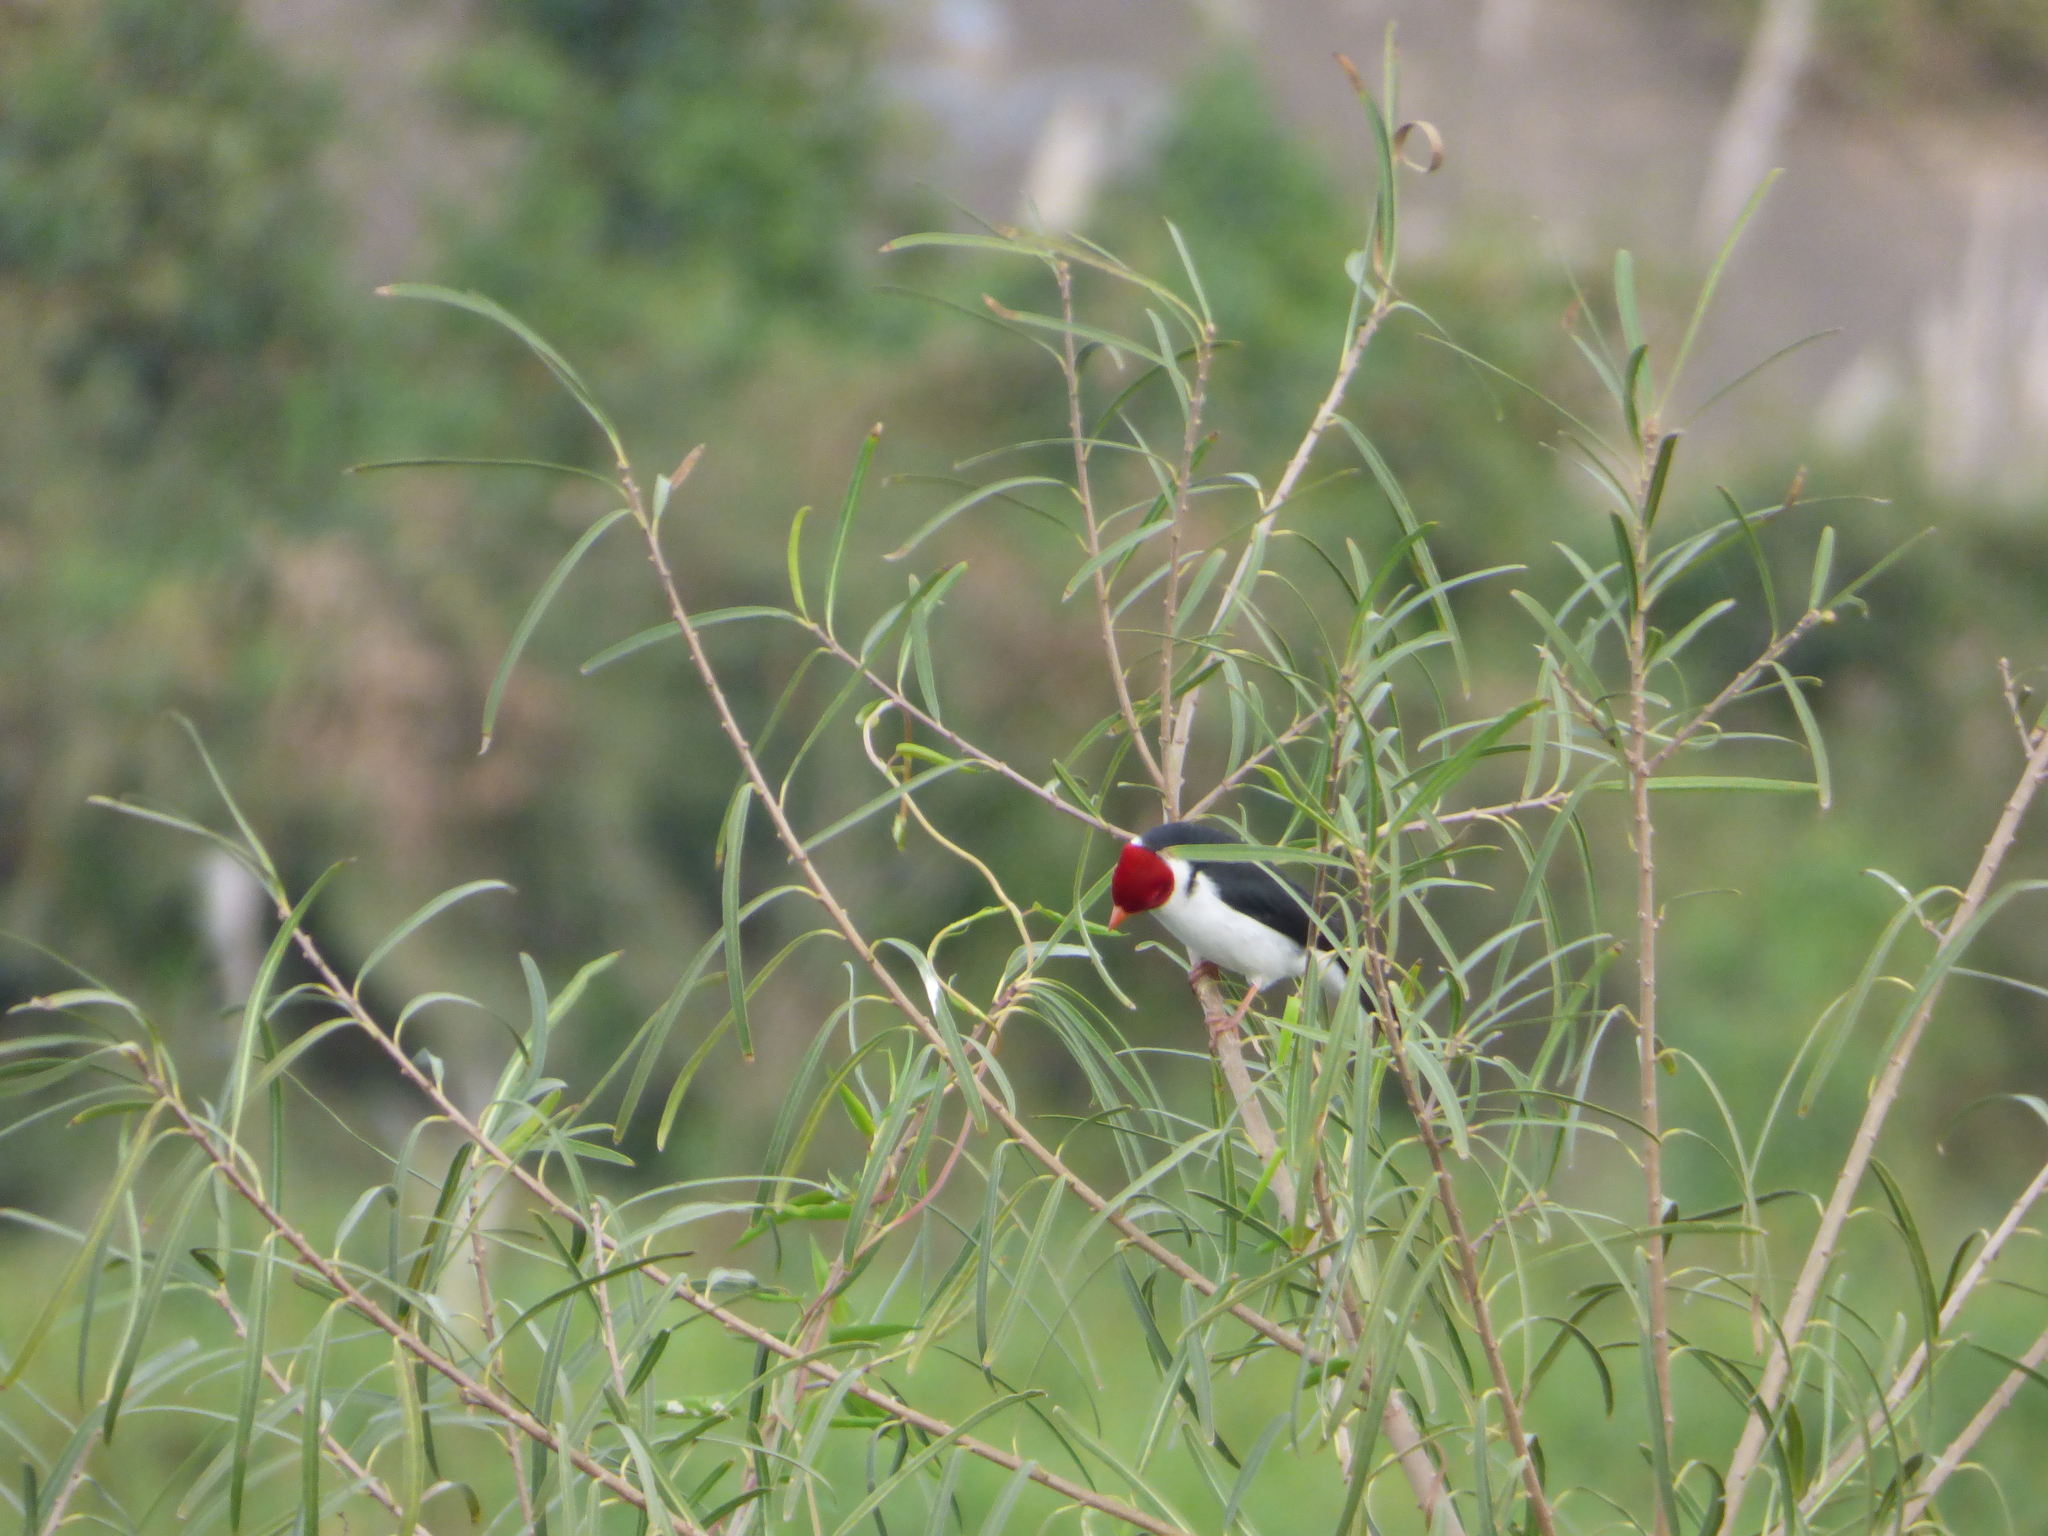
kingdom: Animalia
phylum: Chordata
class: Aves
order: Passeriformes
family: Thraupidae
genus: Paroaria
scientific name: Paroaria capitata
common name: Yellow-billed cardinal
